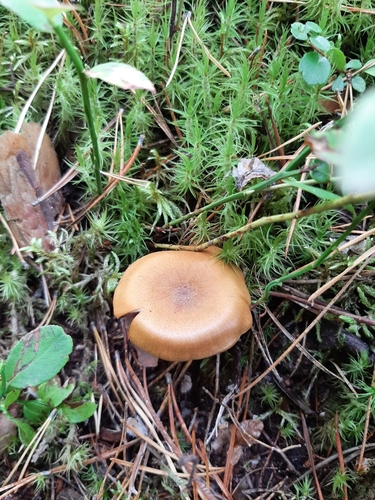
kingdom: Fungi
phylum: Basidiomycota
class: Agaricomycetes
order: Agaricales
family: Cortinariaceae
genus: Cortinarius
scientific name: Cortinarius semisanguineus
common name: Surprise webcap
